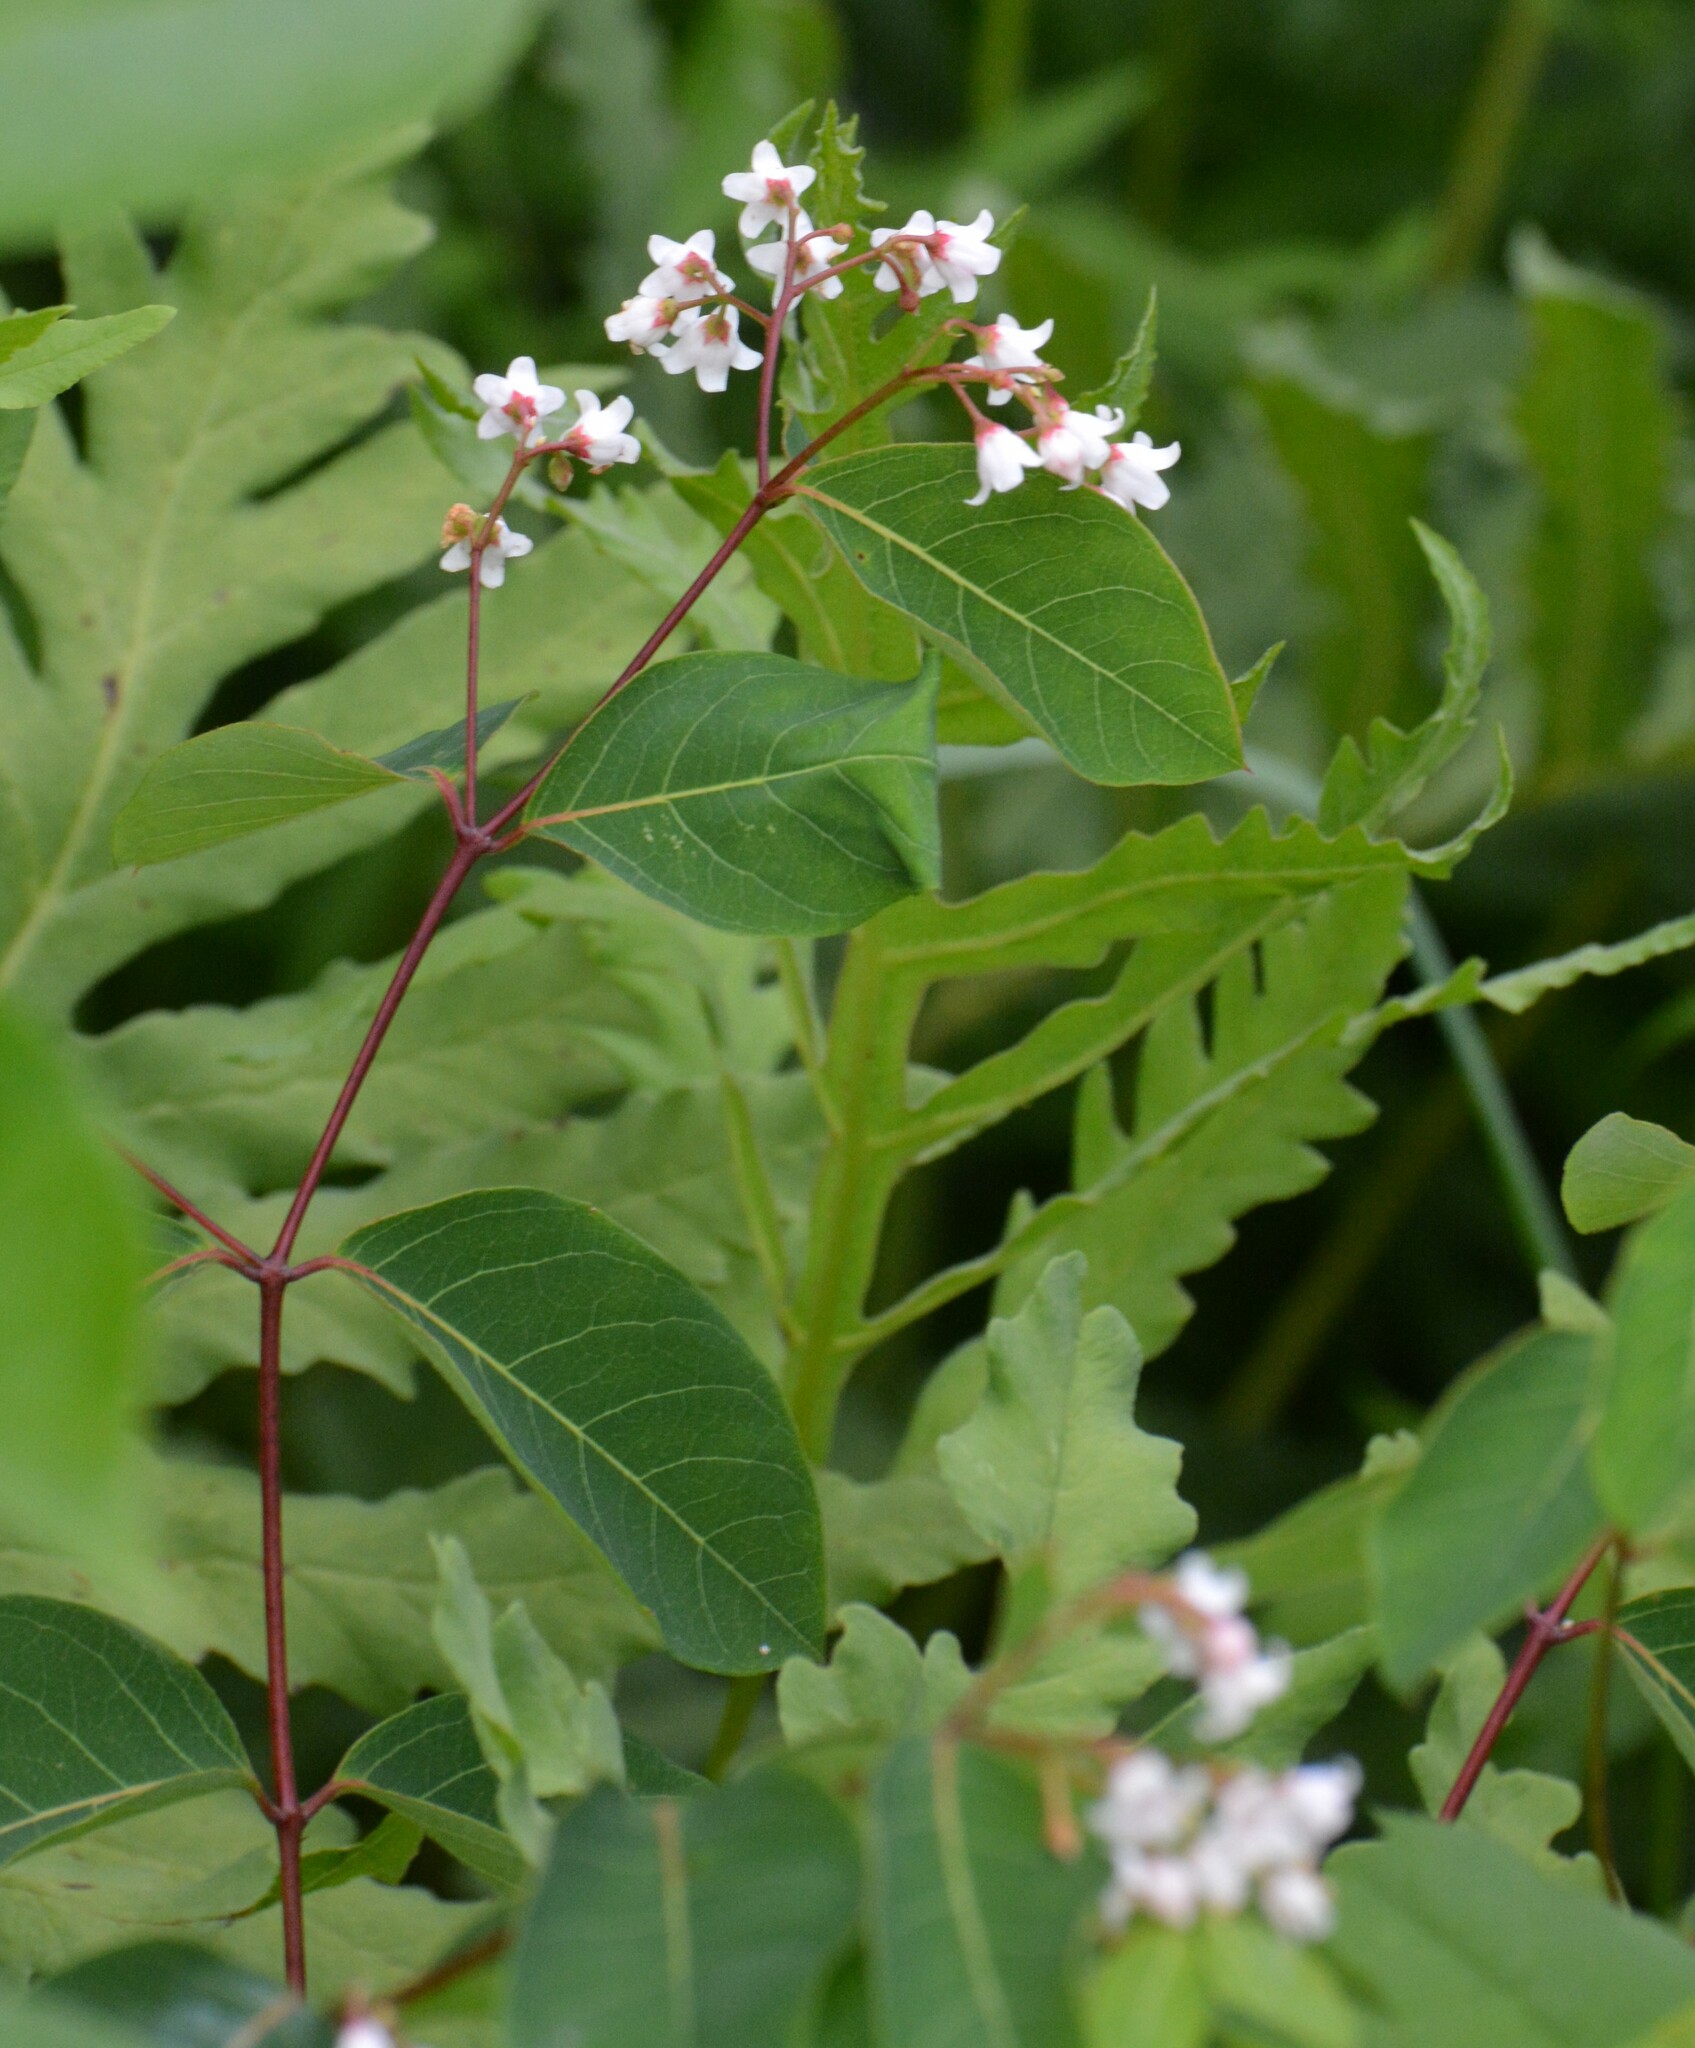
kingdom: Plantae
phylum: Tracheophyta
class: Magnoliopsida
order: Gentianales
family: Apocynaceae
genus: Apocynum
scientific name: Apocynum androsaemifolium
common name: Spreading dogbane
